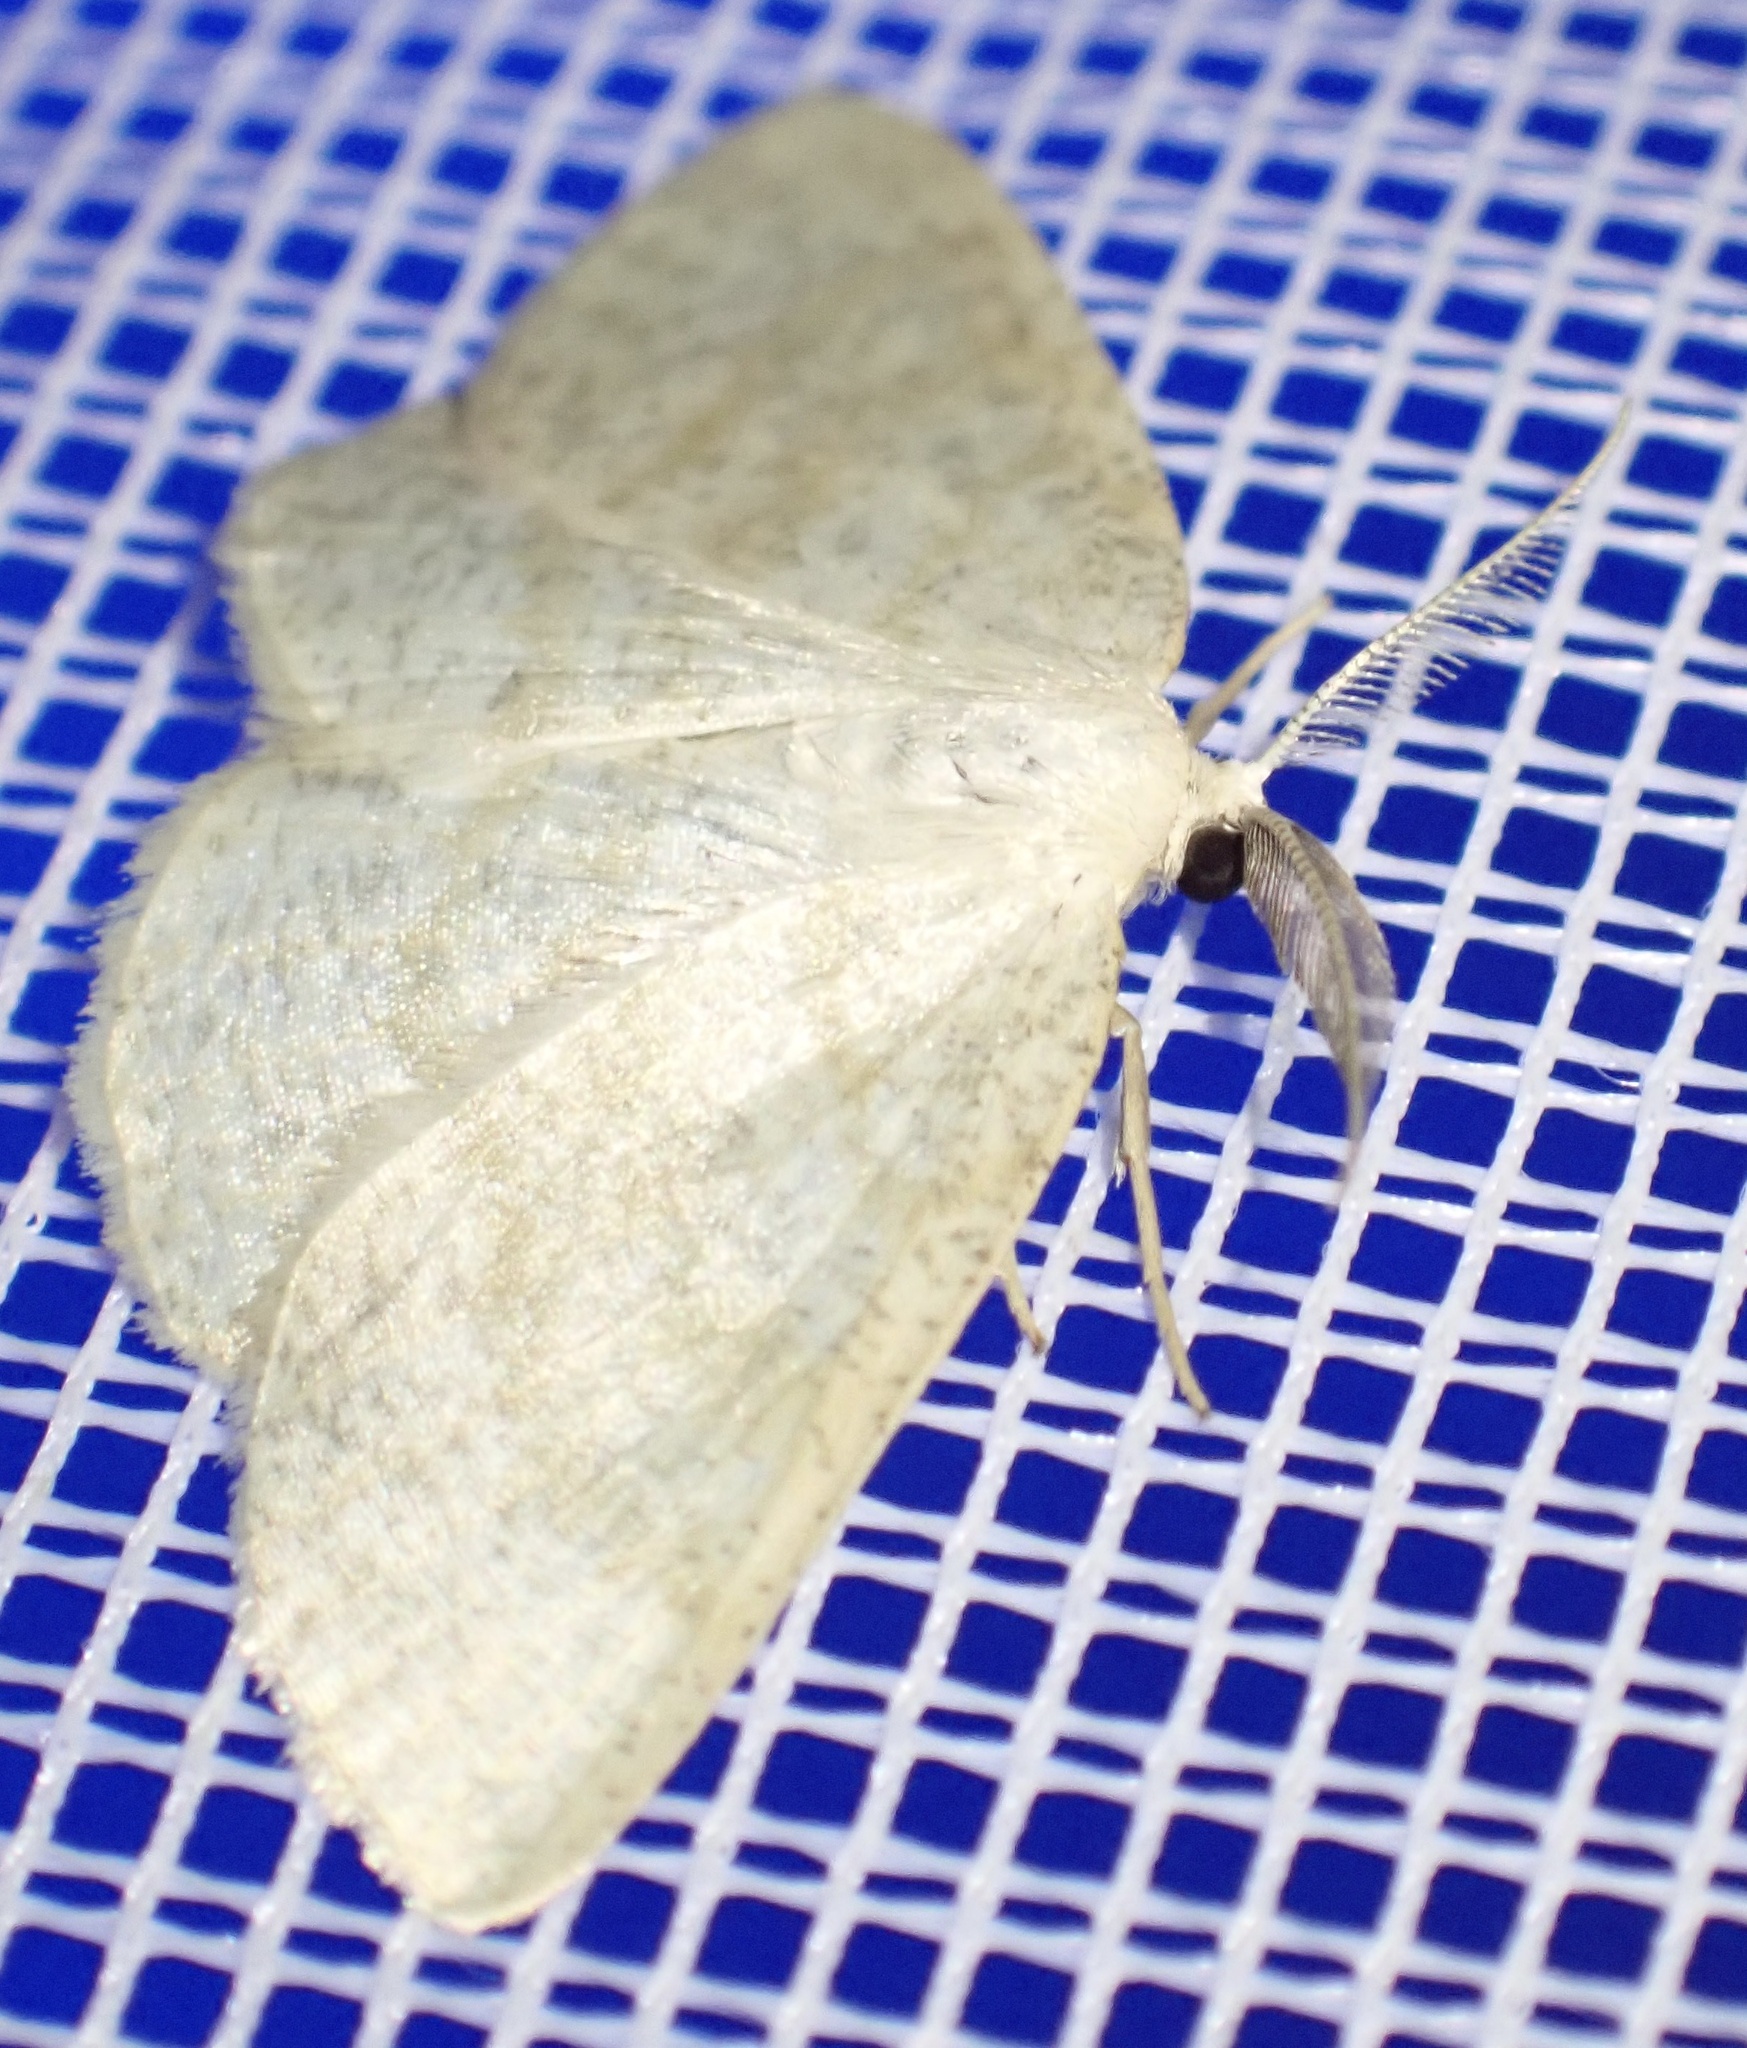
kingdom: Animalia
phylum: Arthropoda
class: Insecta
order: Lepidoptera
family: Geometridae
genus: Cabera
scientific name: Cabera exanthemata
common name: Common wave
